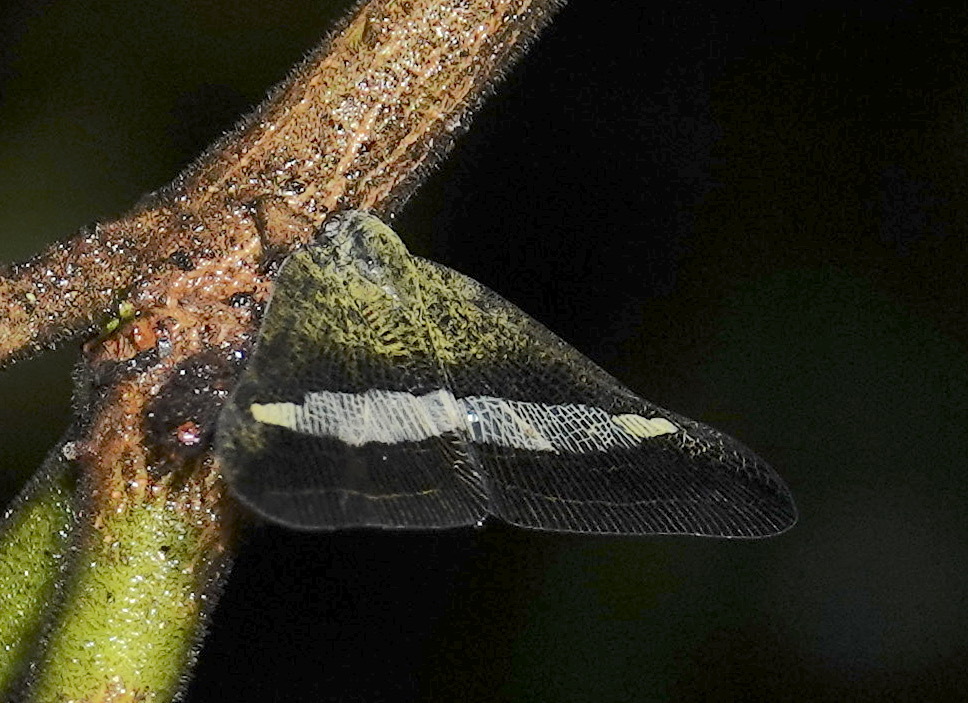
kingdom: Animalia
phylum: Arthropoda
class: Insecta
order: Hemiptera
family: Ricaniidae
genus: Pochazia
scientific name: Pochazia sinuata
